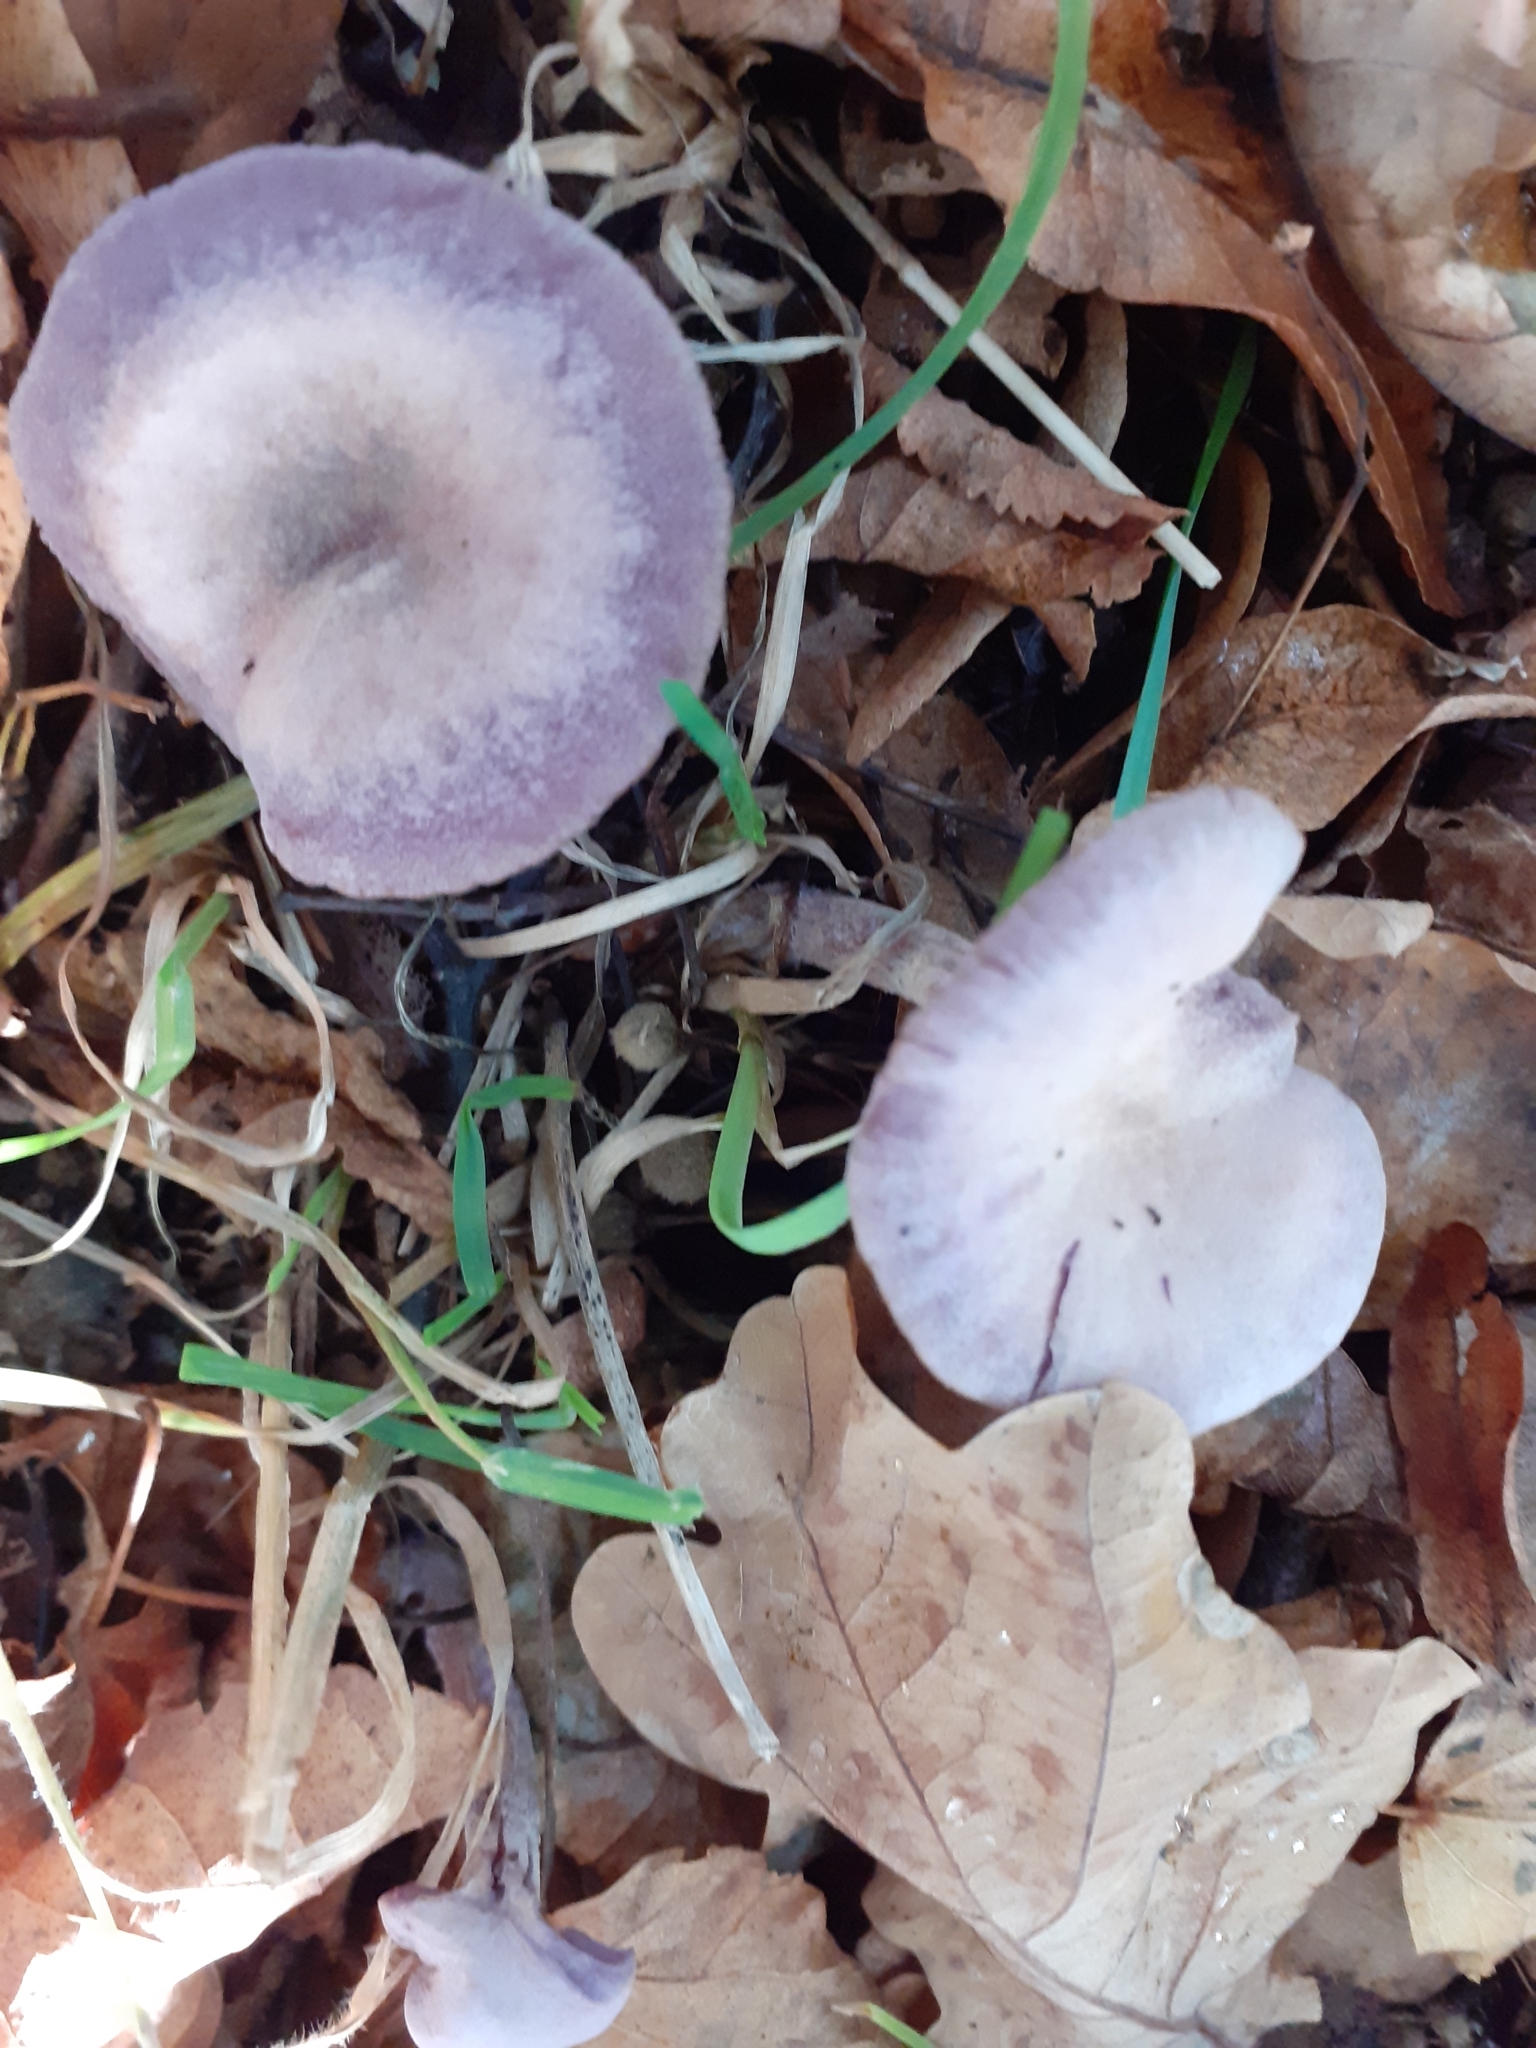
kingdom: Fungi
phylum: Basidiomycota
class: Agaricomycetes
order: Agaricales
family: Hydnangiaceae
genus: Laccaria
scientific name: Laccaria amethystina
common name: Amethyst deceiver
